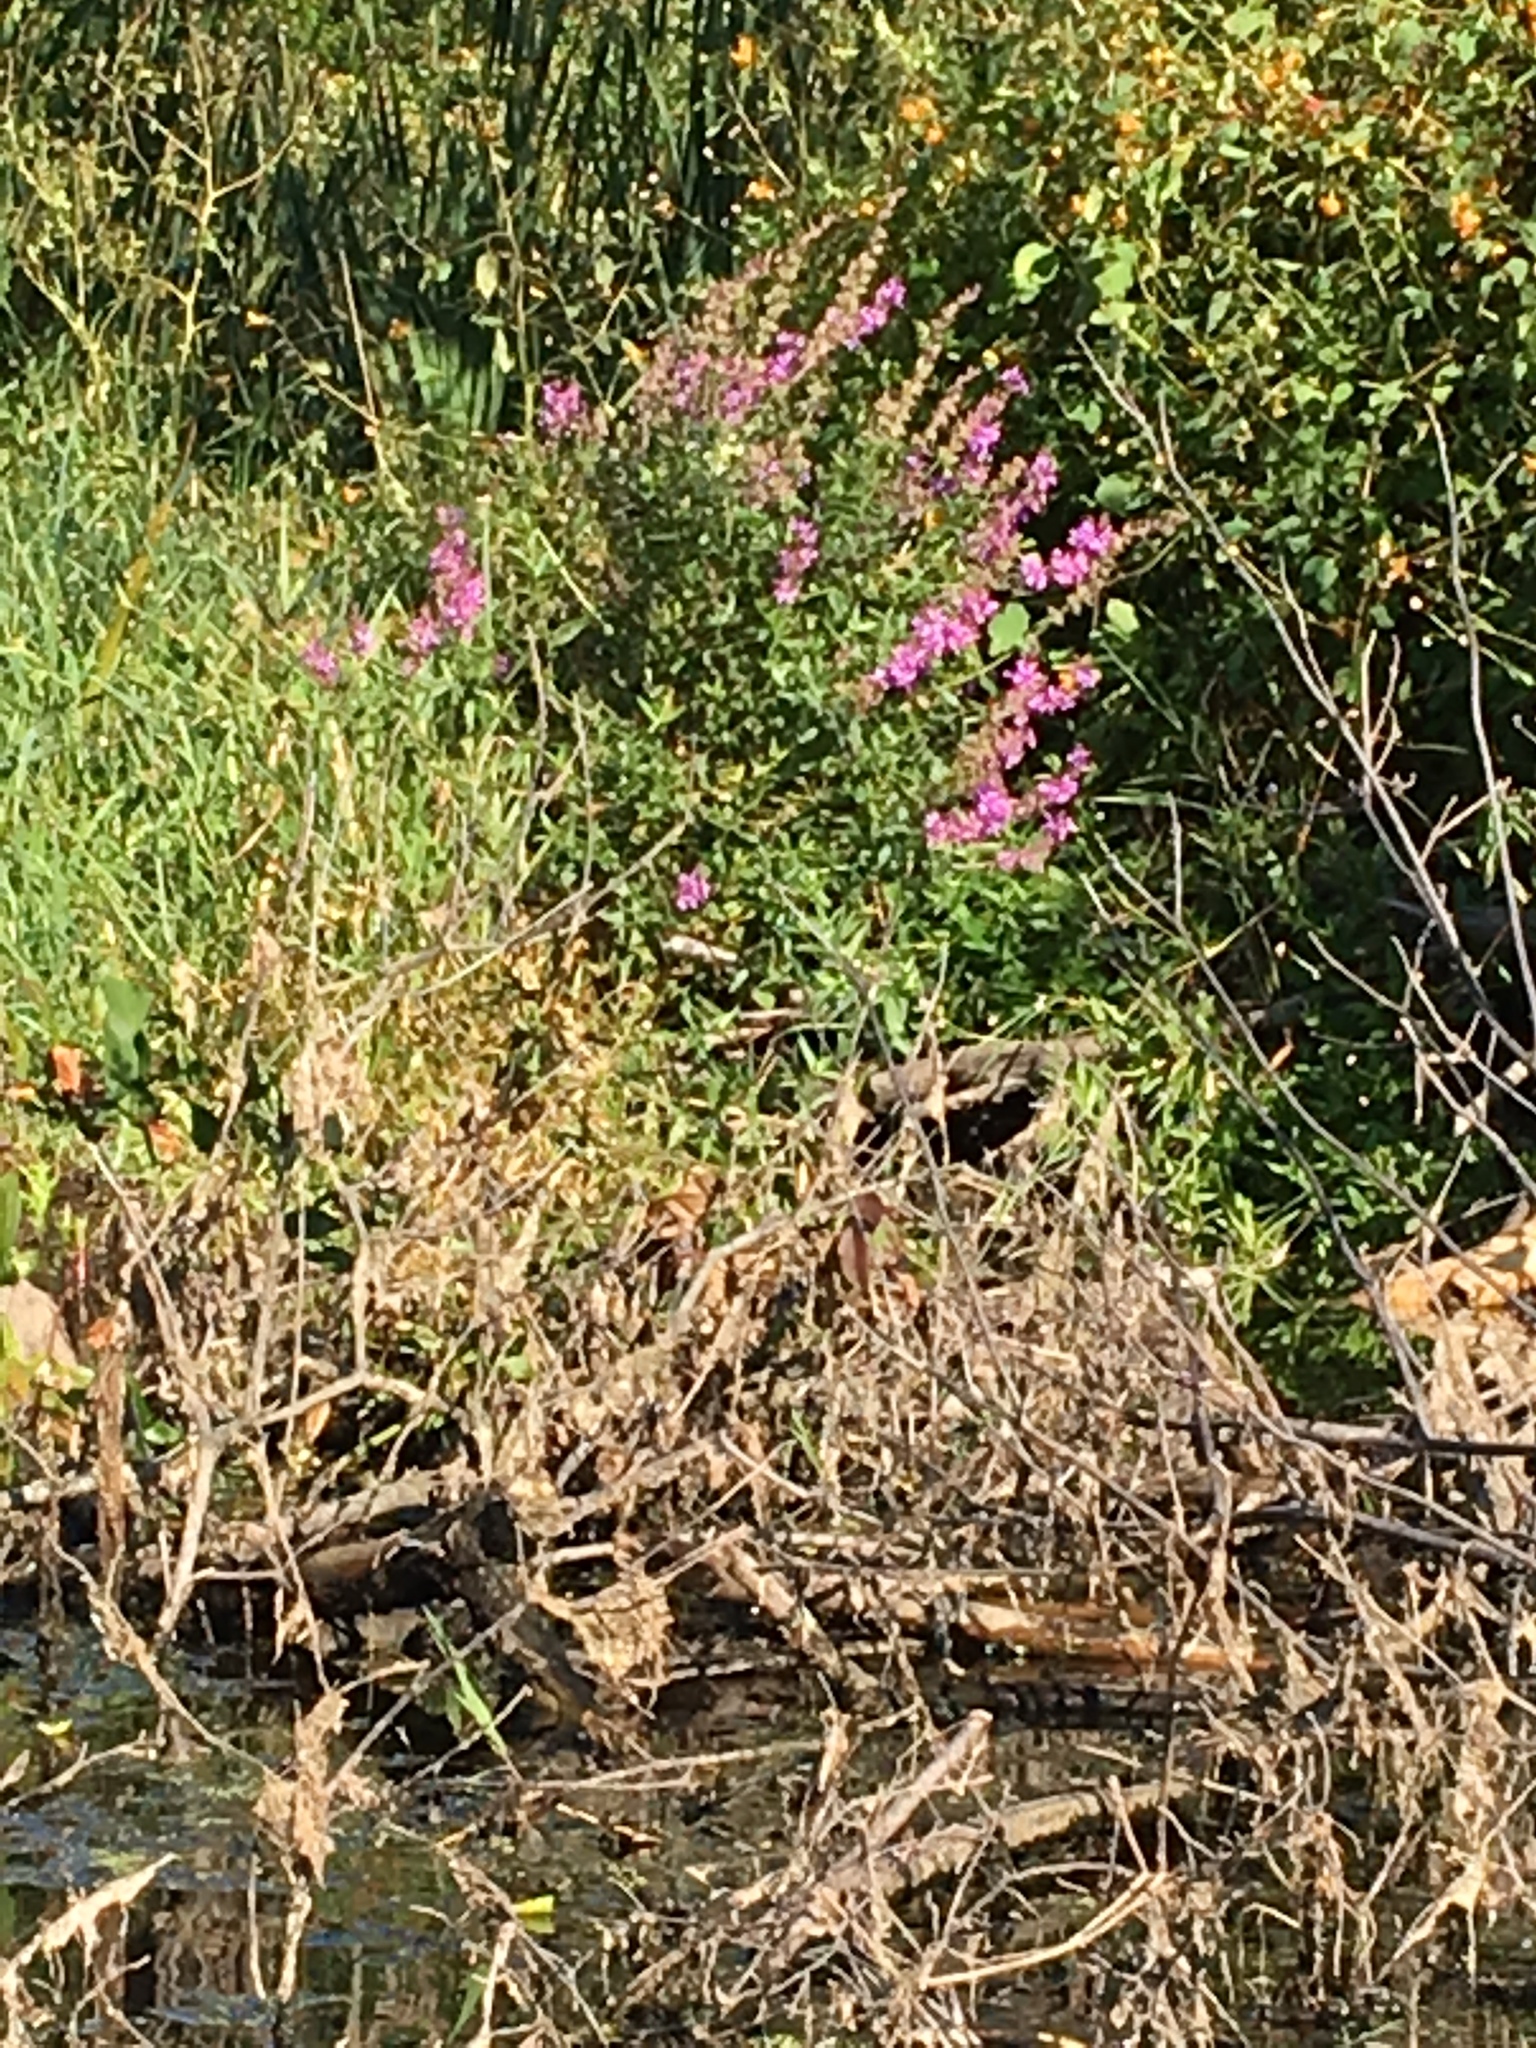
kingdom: Plantae
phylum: Tracheophyta
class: Magnoliopsida
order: Myrtales
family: Lythraceae
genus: Lythrum
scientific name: Lythrum salicaria
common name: Purple loosestrife
